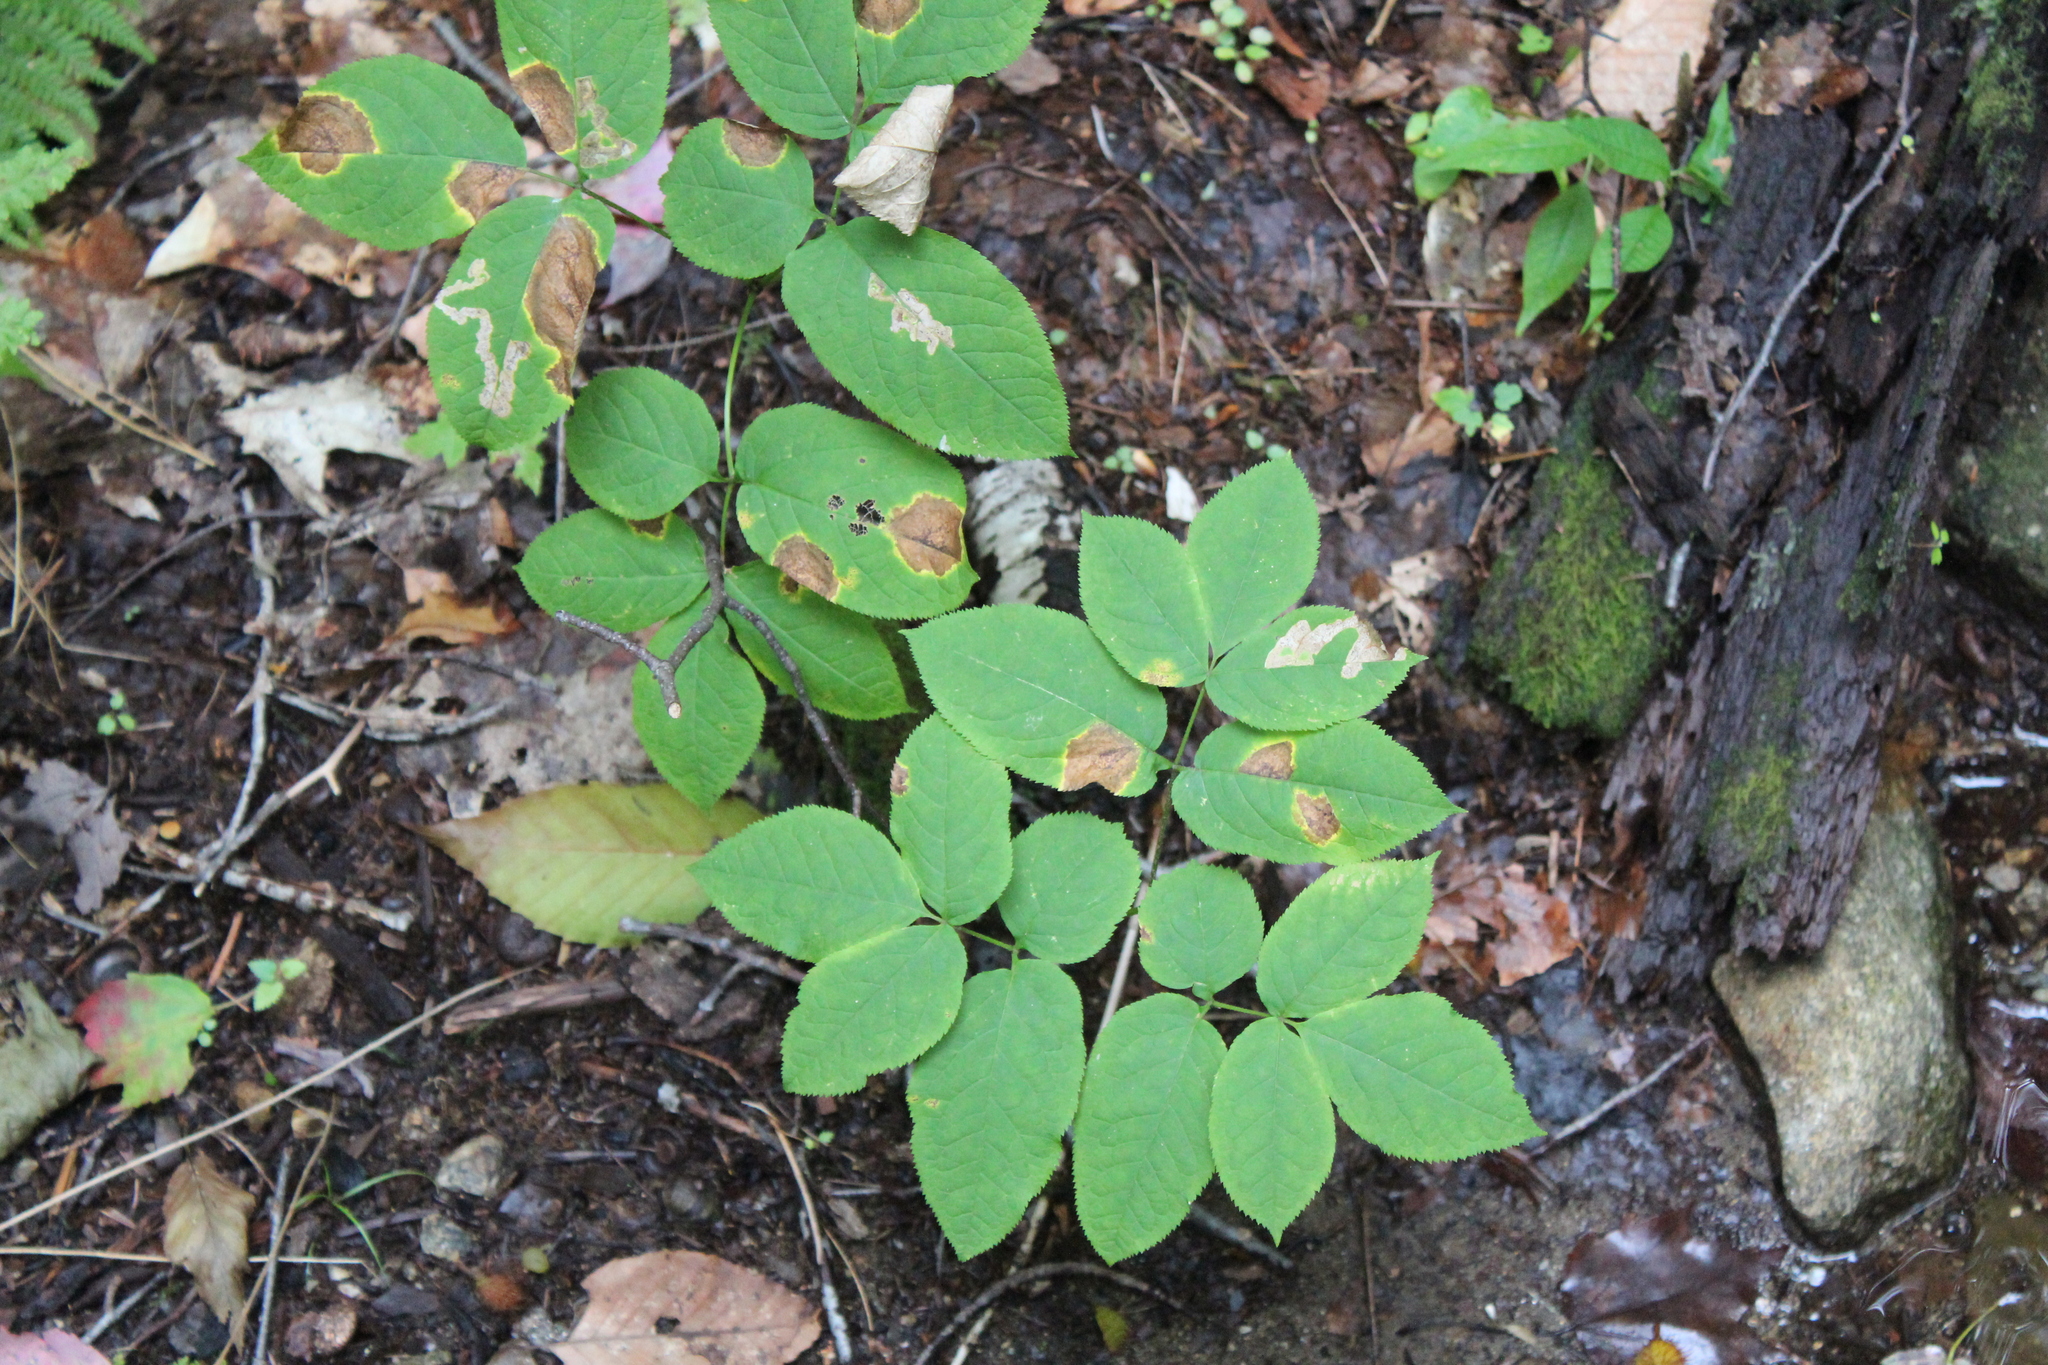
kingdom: Plantae
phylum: Tracheophyta
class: Magnoliopsida
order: Apiales
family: Araliaceae
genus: Aralia
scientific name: Aralia nudicaulis
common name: Wild sarsaparilla
